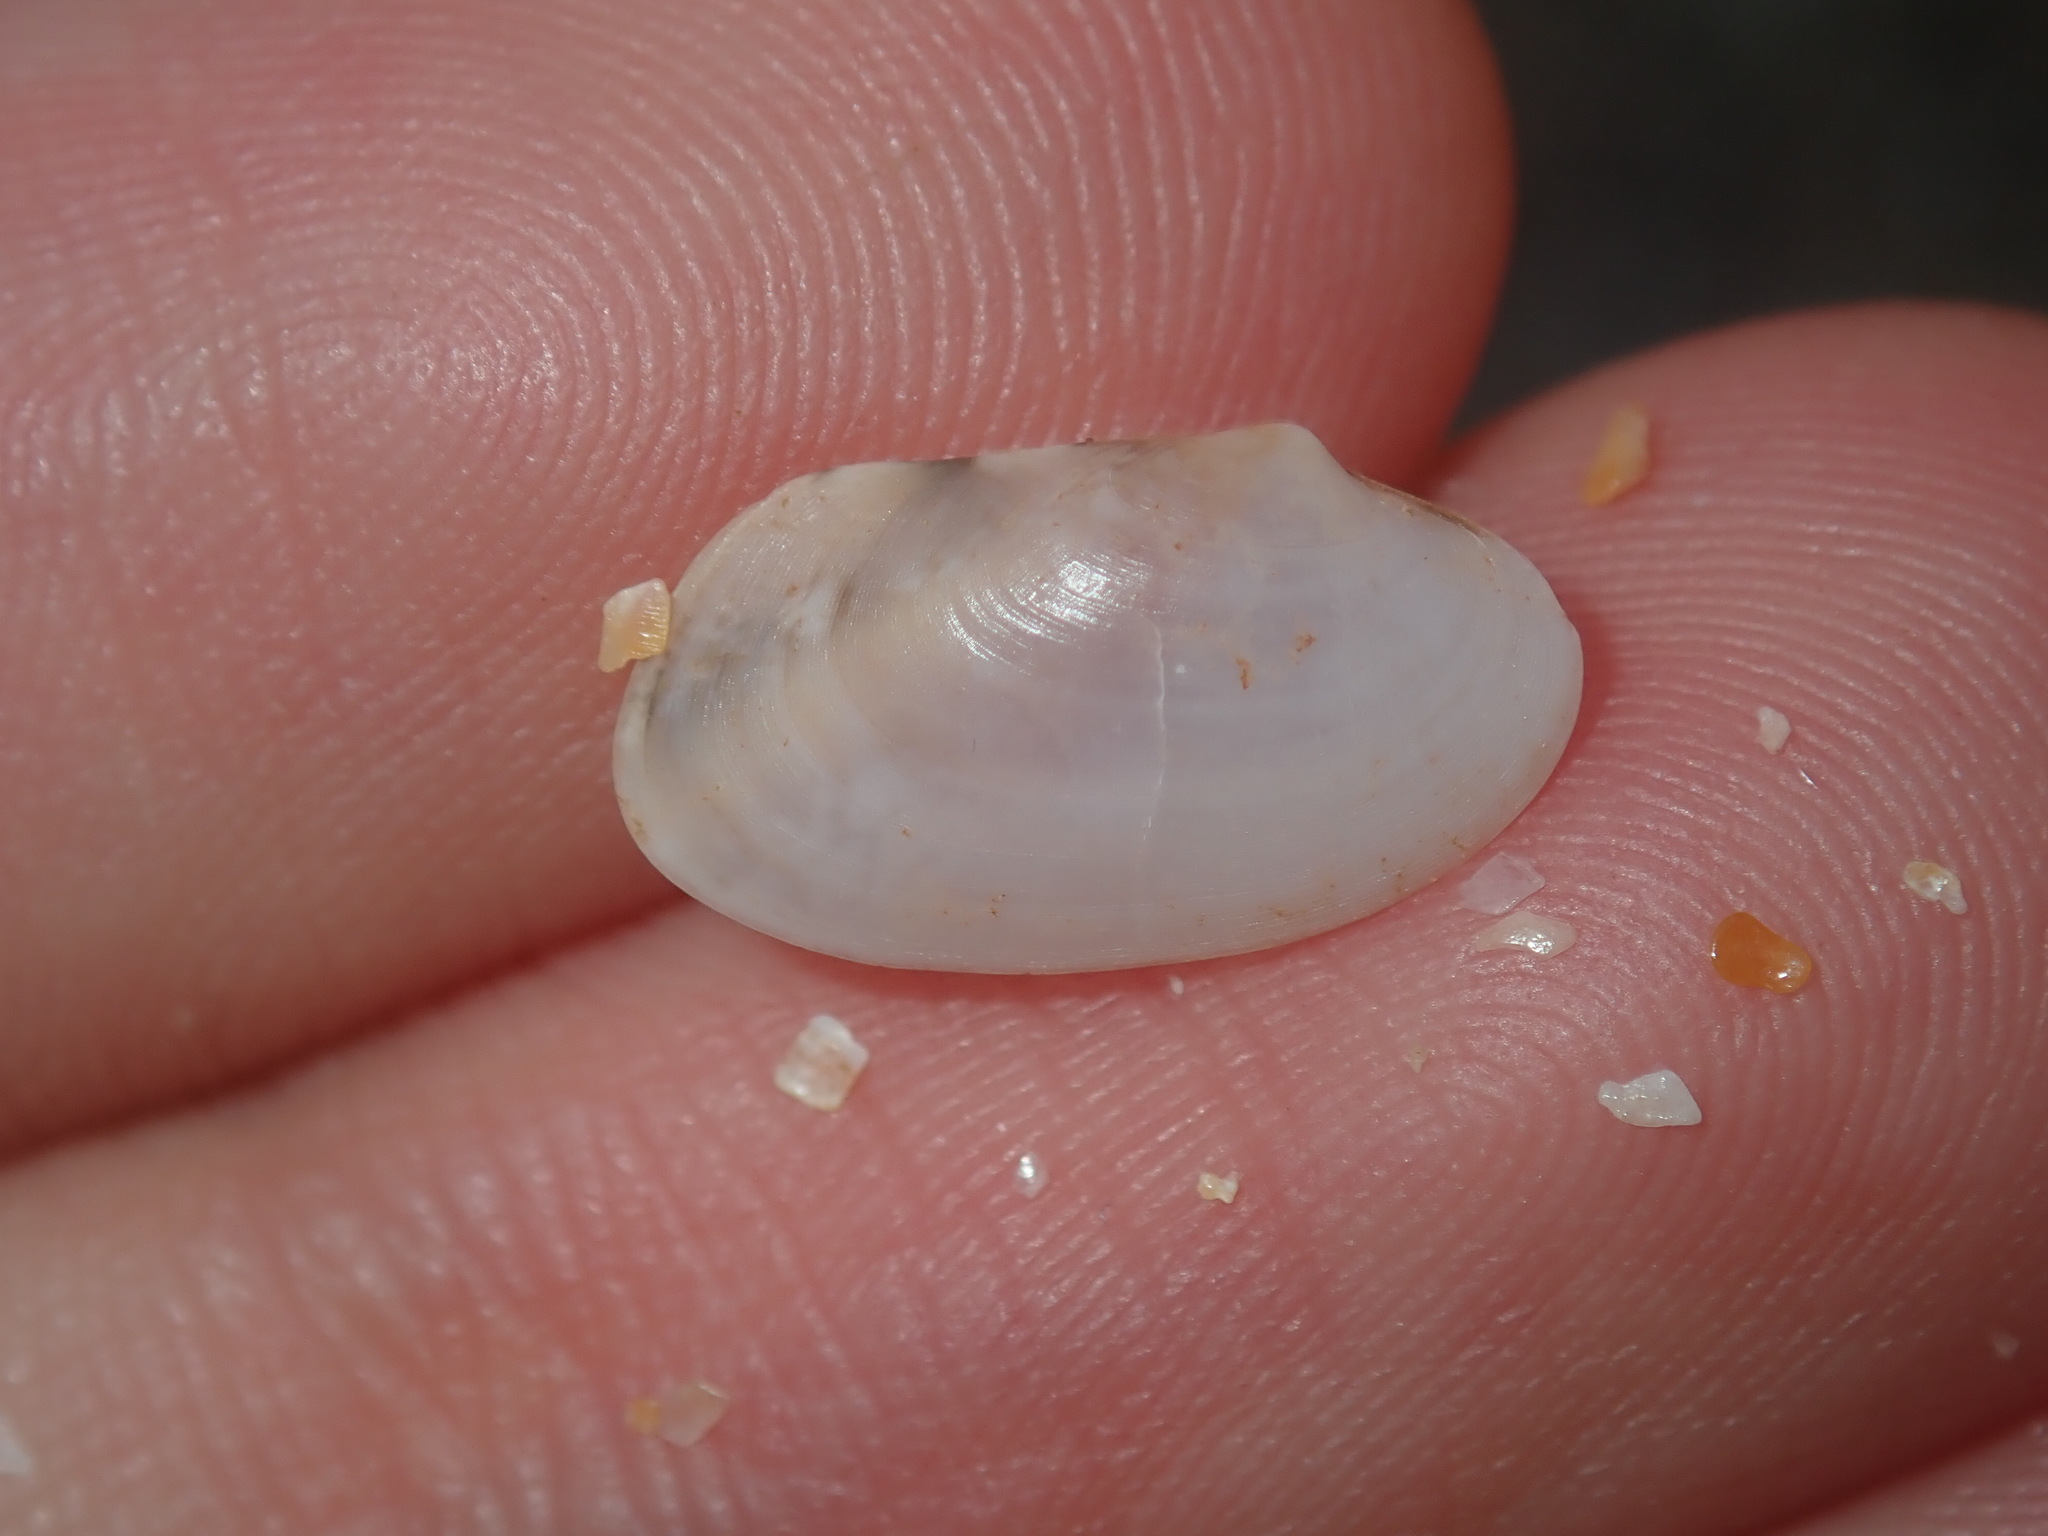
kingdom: Animalia
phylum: Mollusca
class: Bivalvia
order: Venerida
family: Veneridae
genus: Venerupis
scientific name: Venerupis anomala
